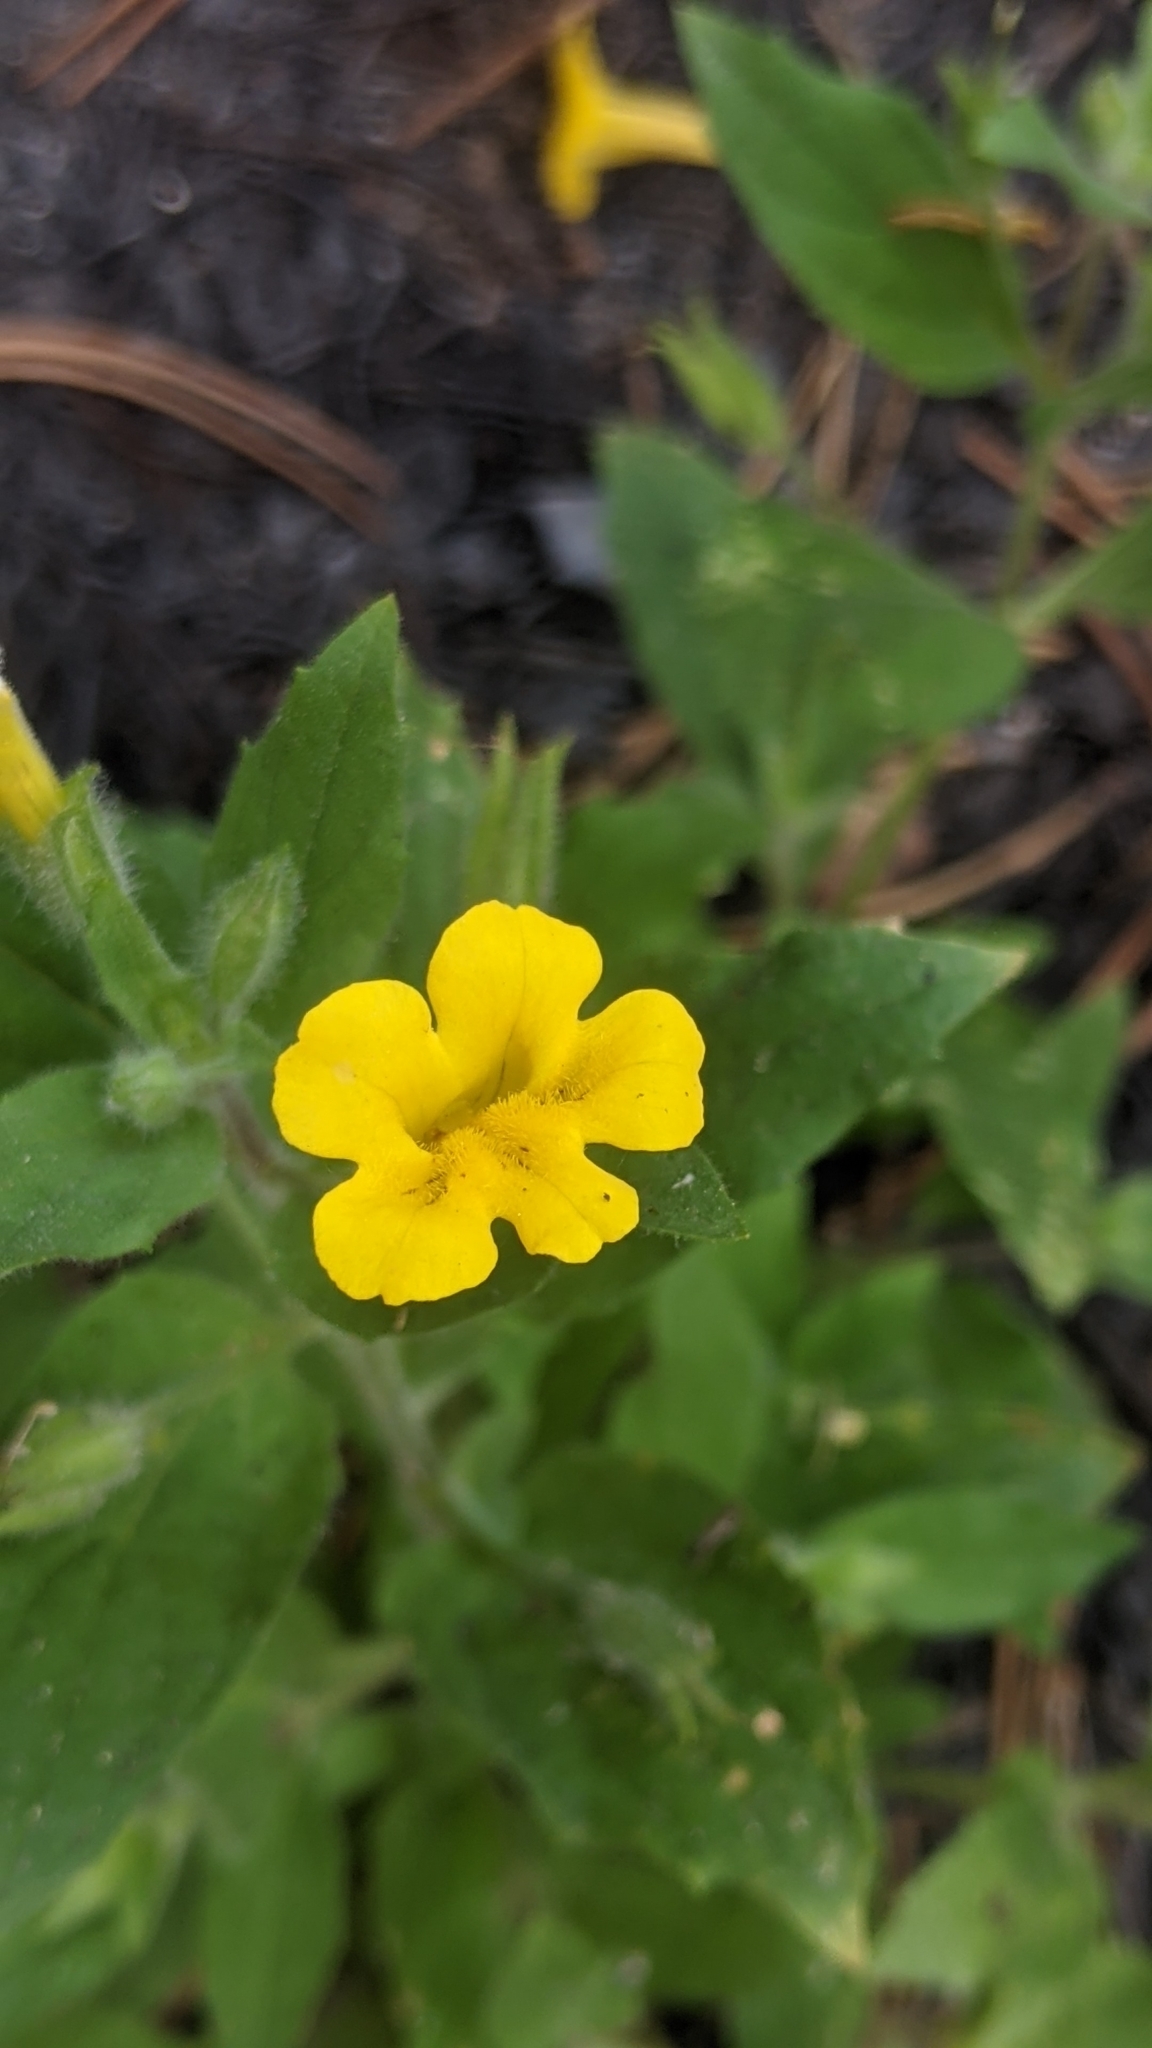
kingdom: Plantae
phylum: Tracheophyta
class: Magnoliopsida
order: Lamiales
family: Phrymaceae
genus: Erythranthe
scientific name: Erythranthe moschata
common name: Muskflower
